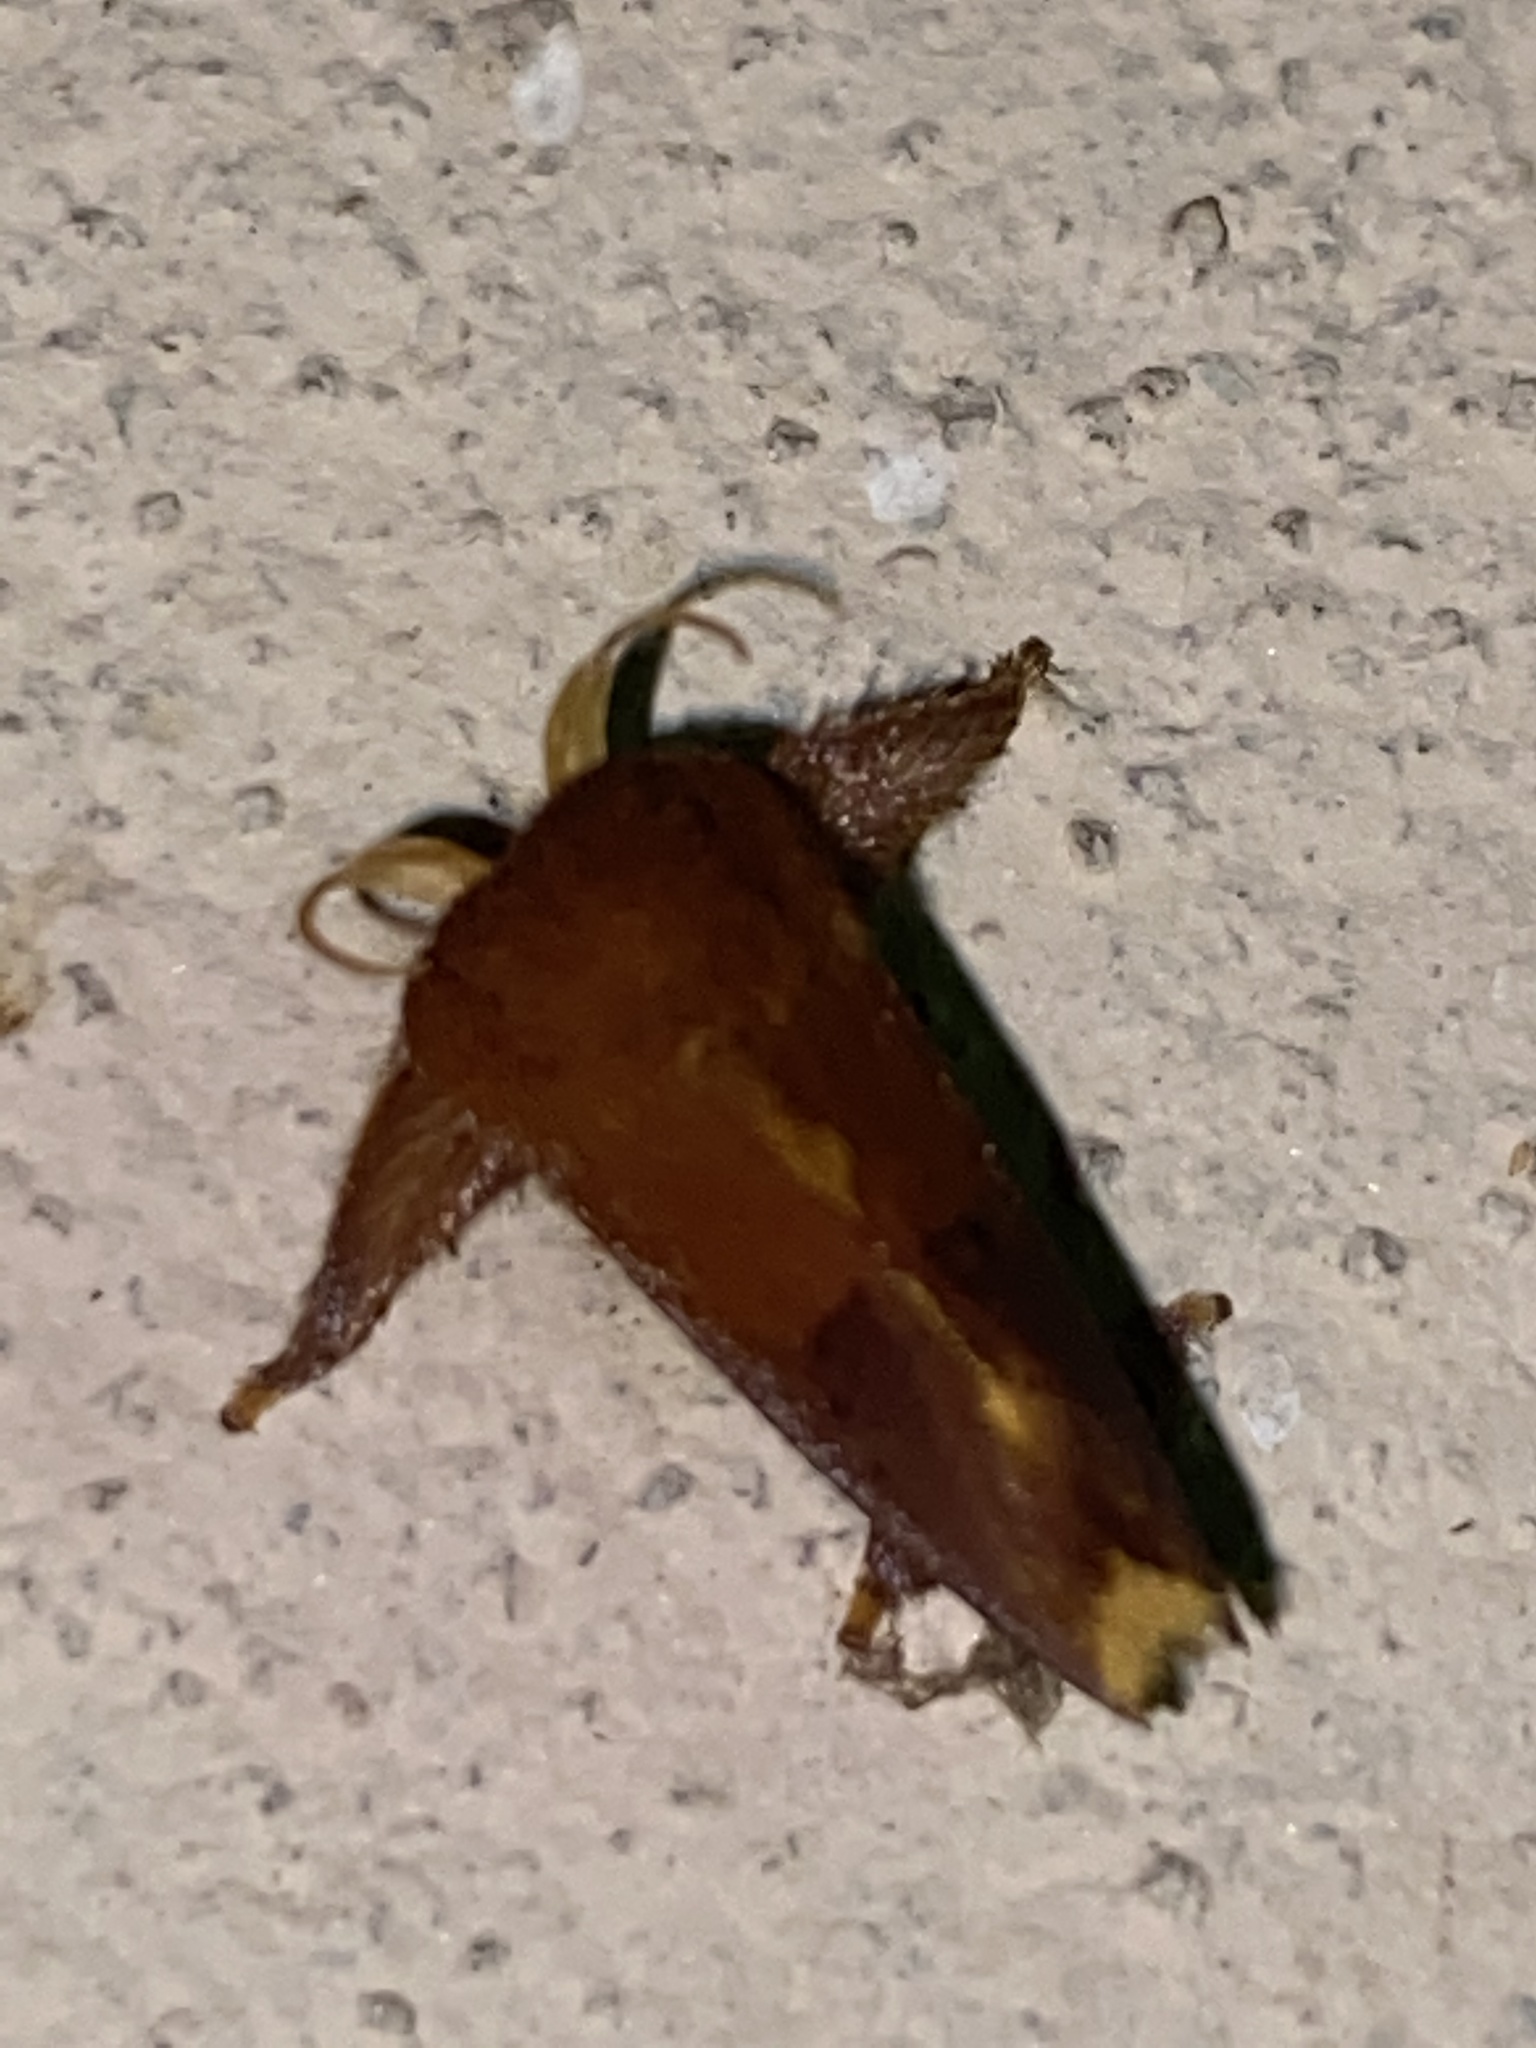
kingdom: Animalia
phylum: Arthropoda
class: Insecta
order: Lepidoptera
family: Limacodidae
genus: Talima
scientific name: Talima postica
